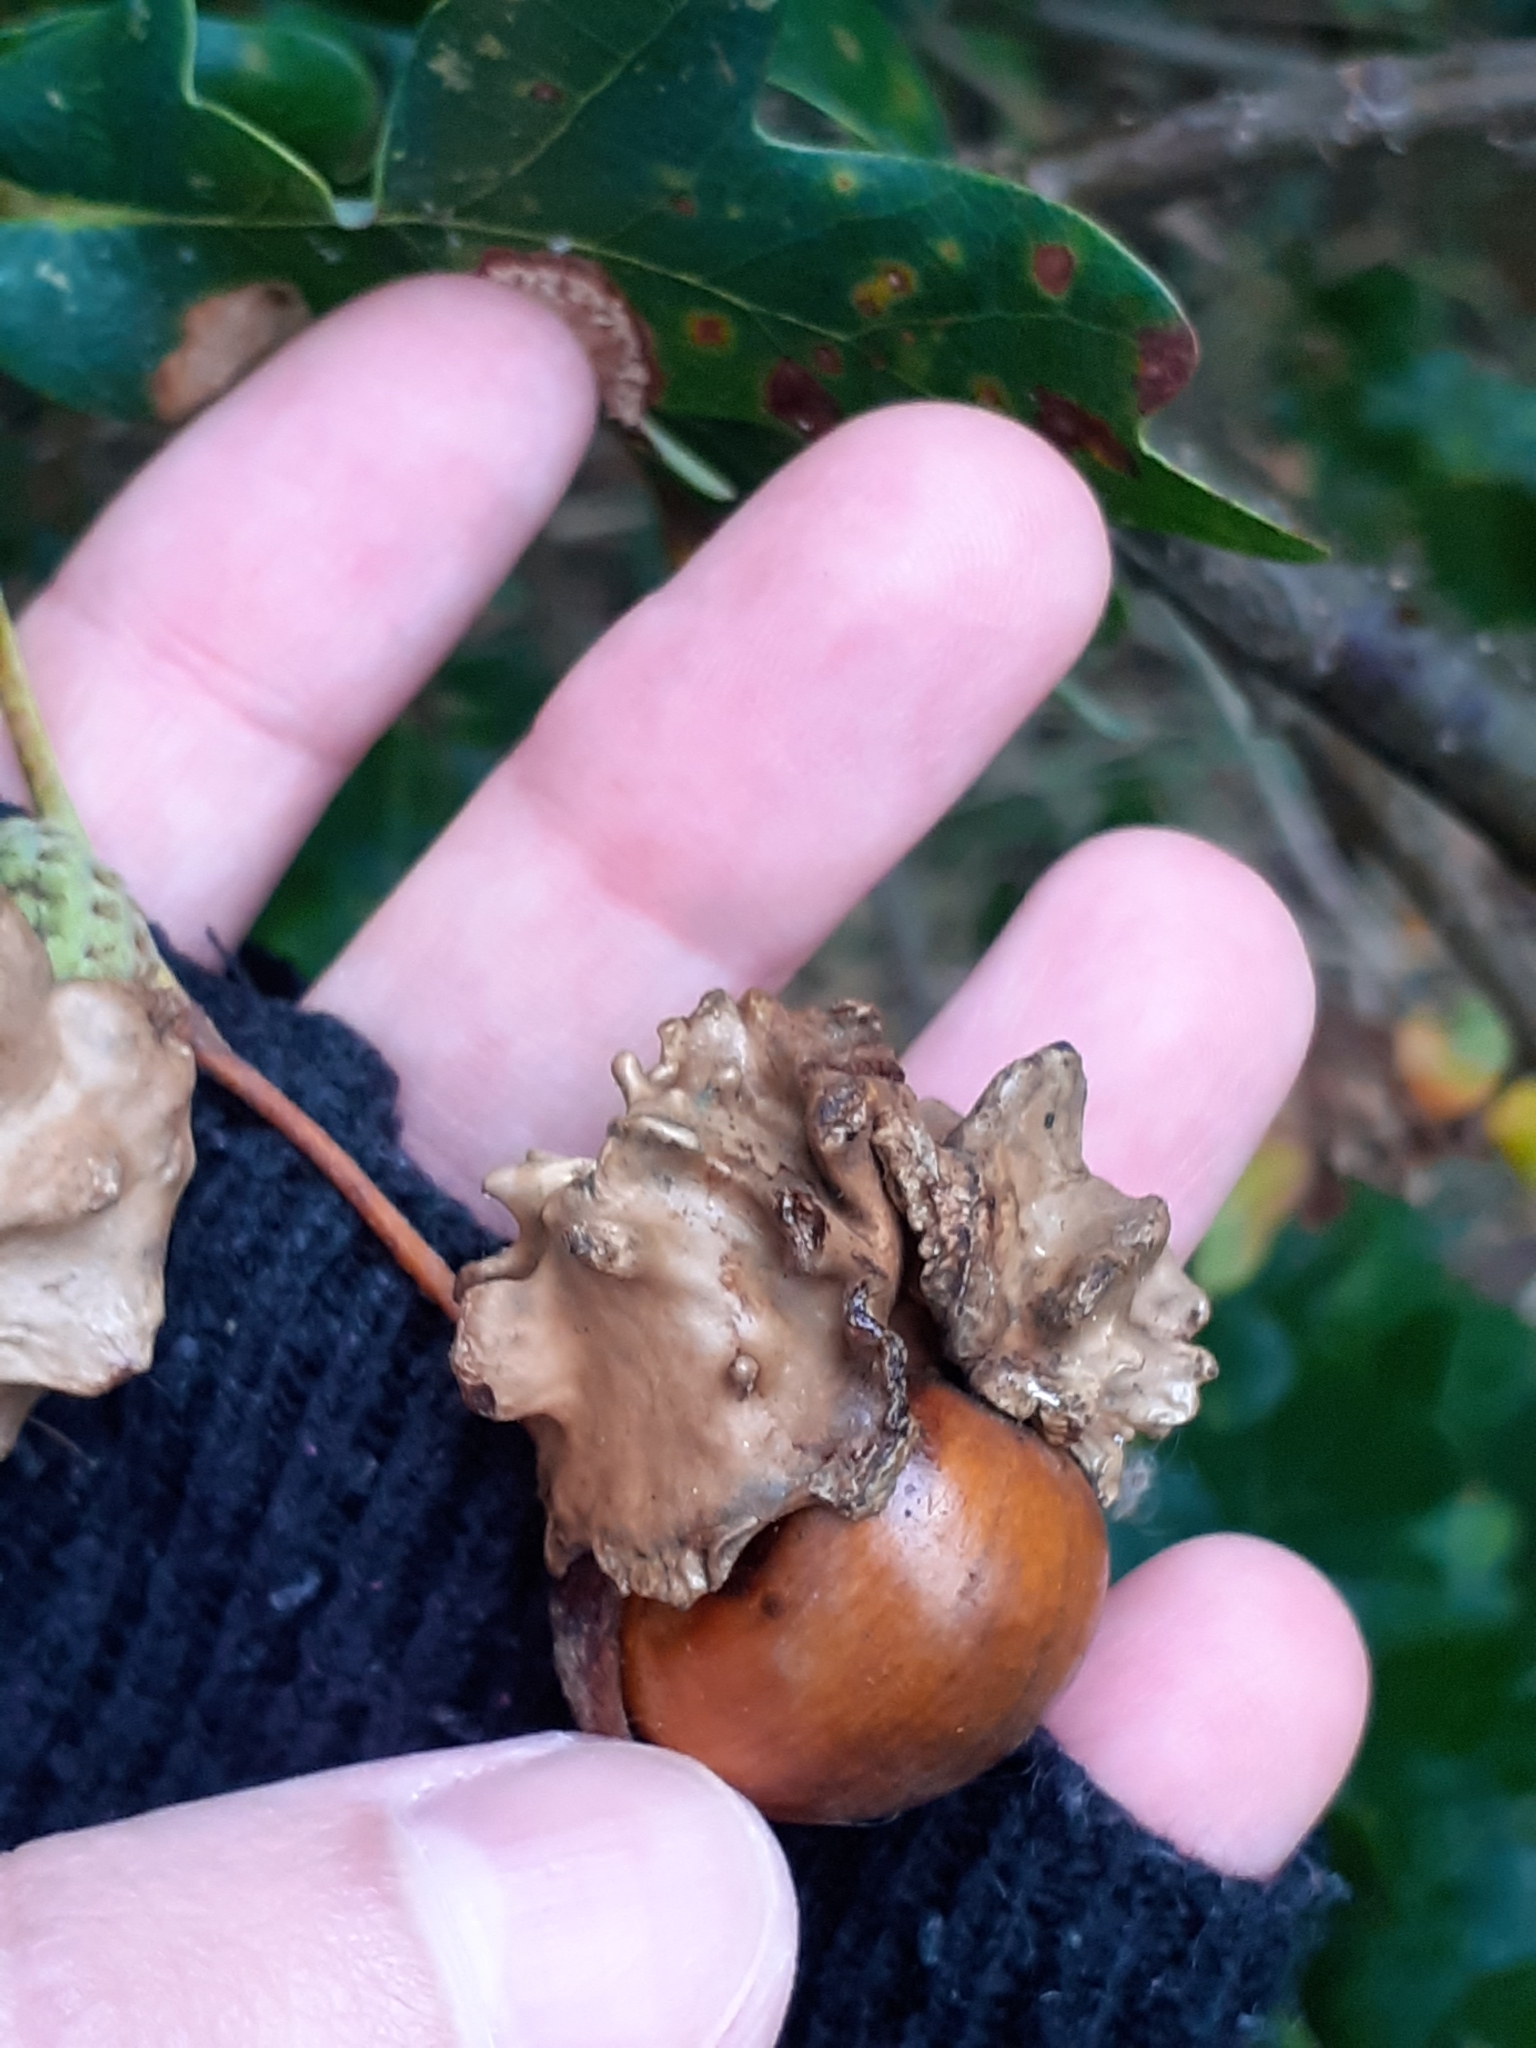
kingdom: Animalia
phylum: Arthropoda
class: Insecta
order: Hymenoptera
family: Cynipidae
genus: Andricus
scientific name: Andricus quercuscalicis
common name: Knopper gall
